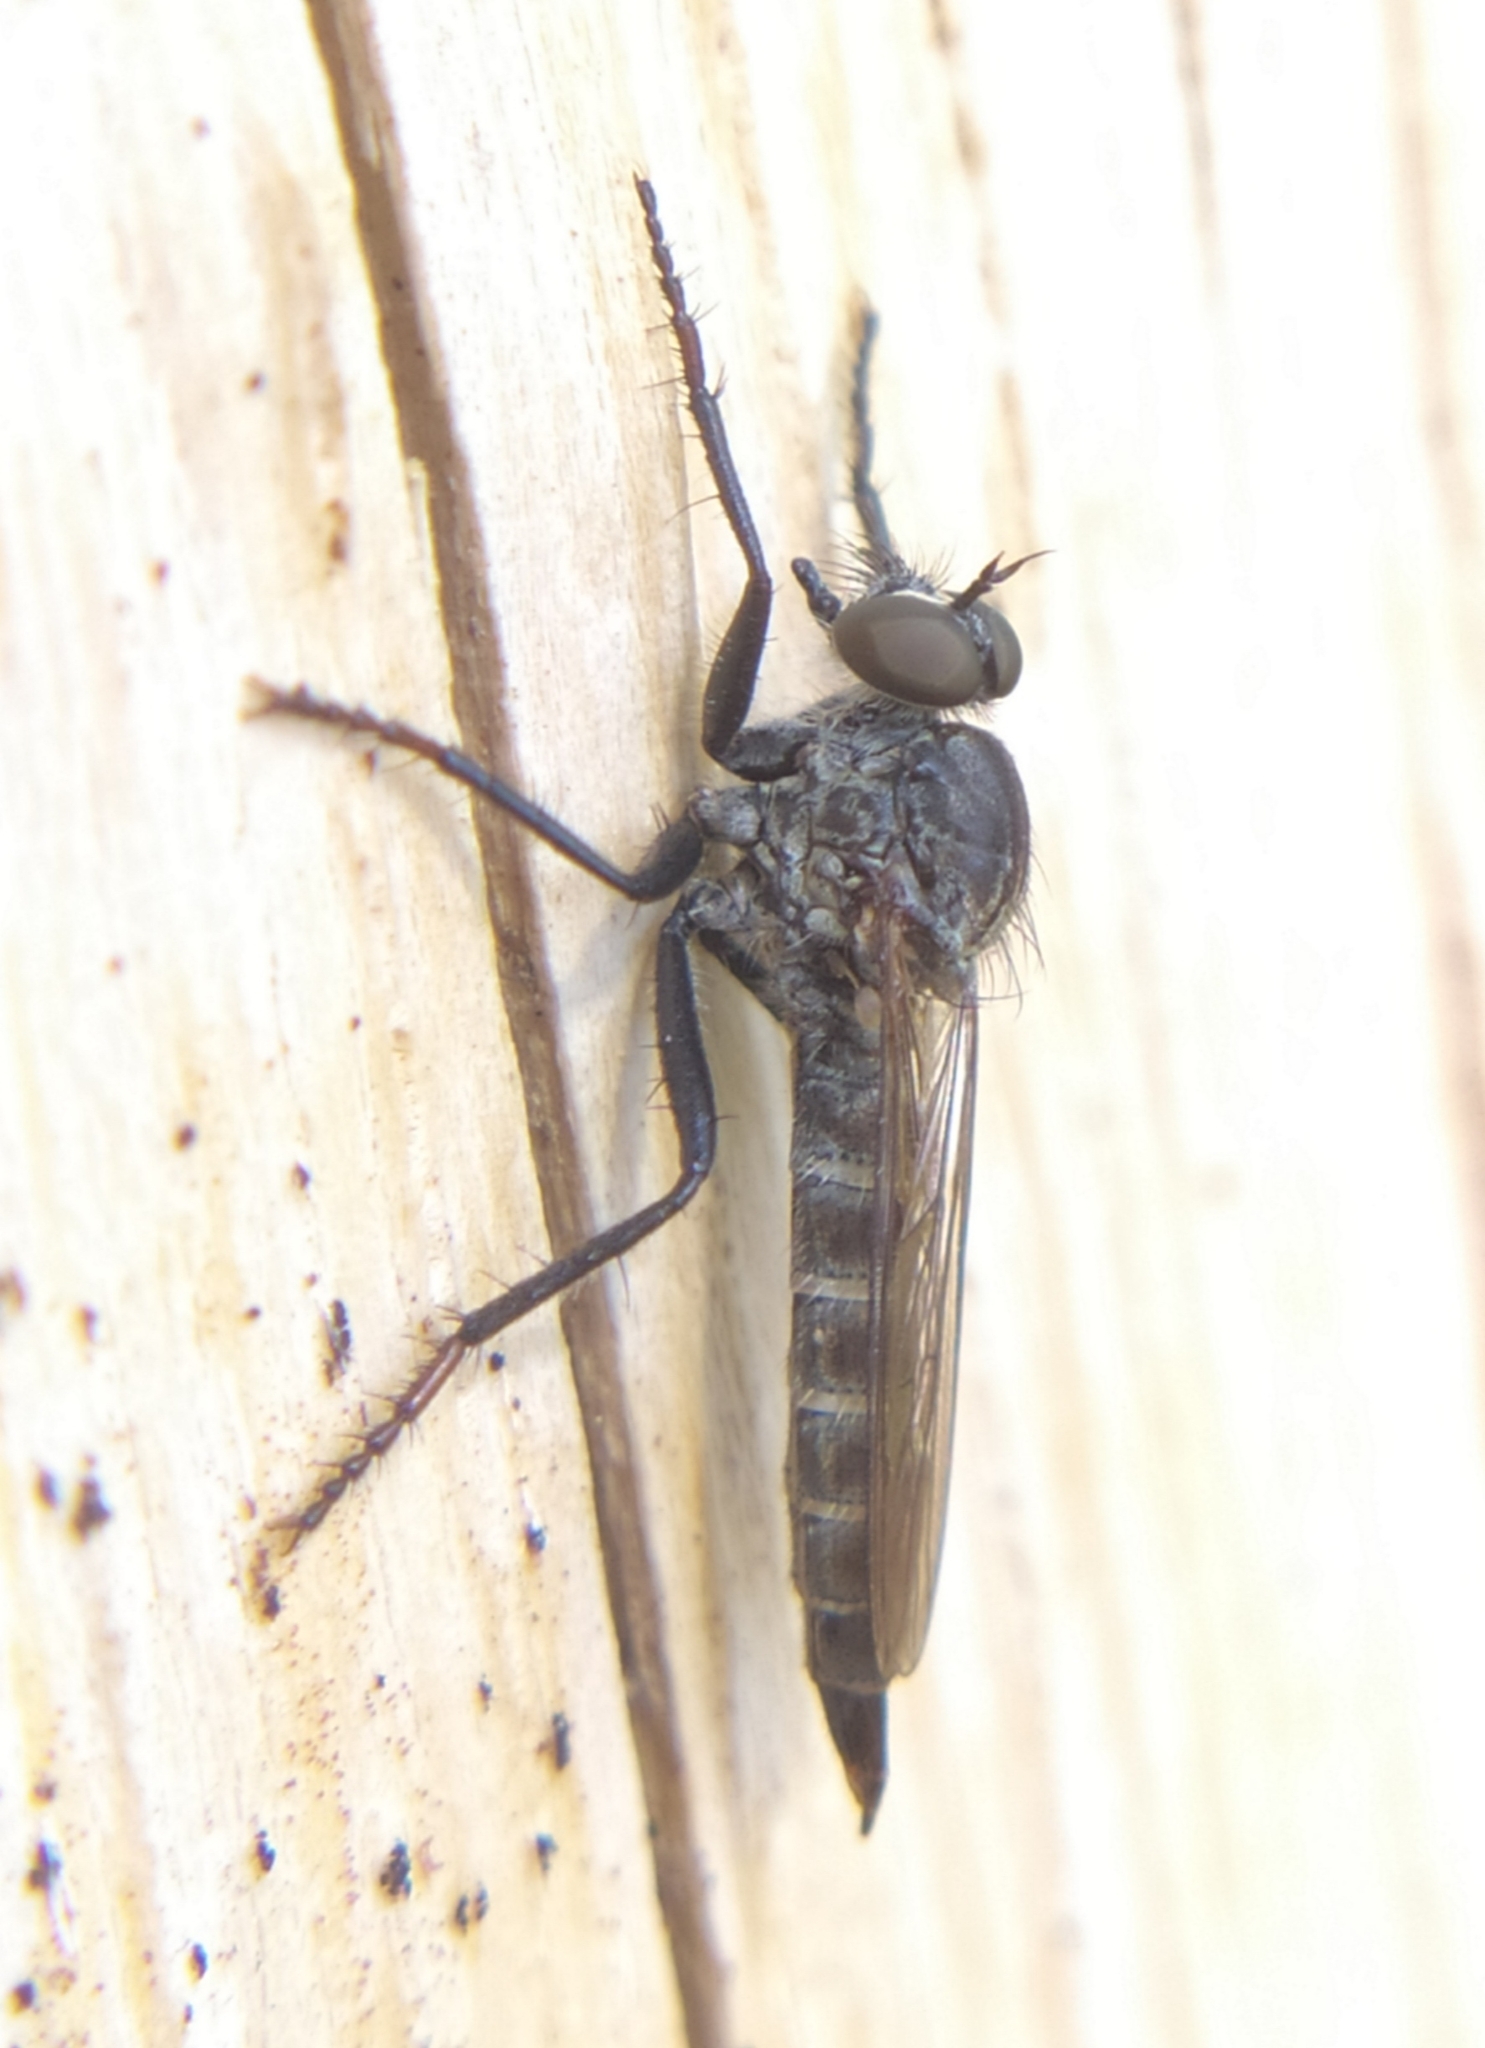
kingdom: Animalia
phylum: Arthropoda
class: Insecta
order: Diptera
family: Asilidae
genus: Machimus
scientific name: Machimus atricapillus
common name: Kite-tailed robberfly
